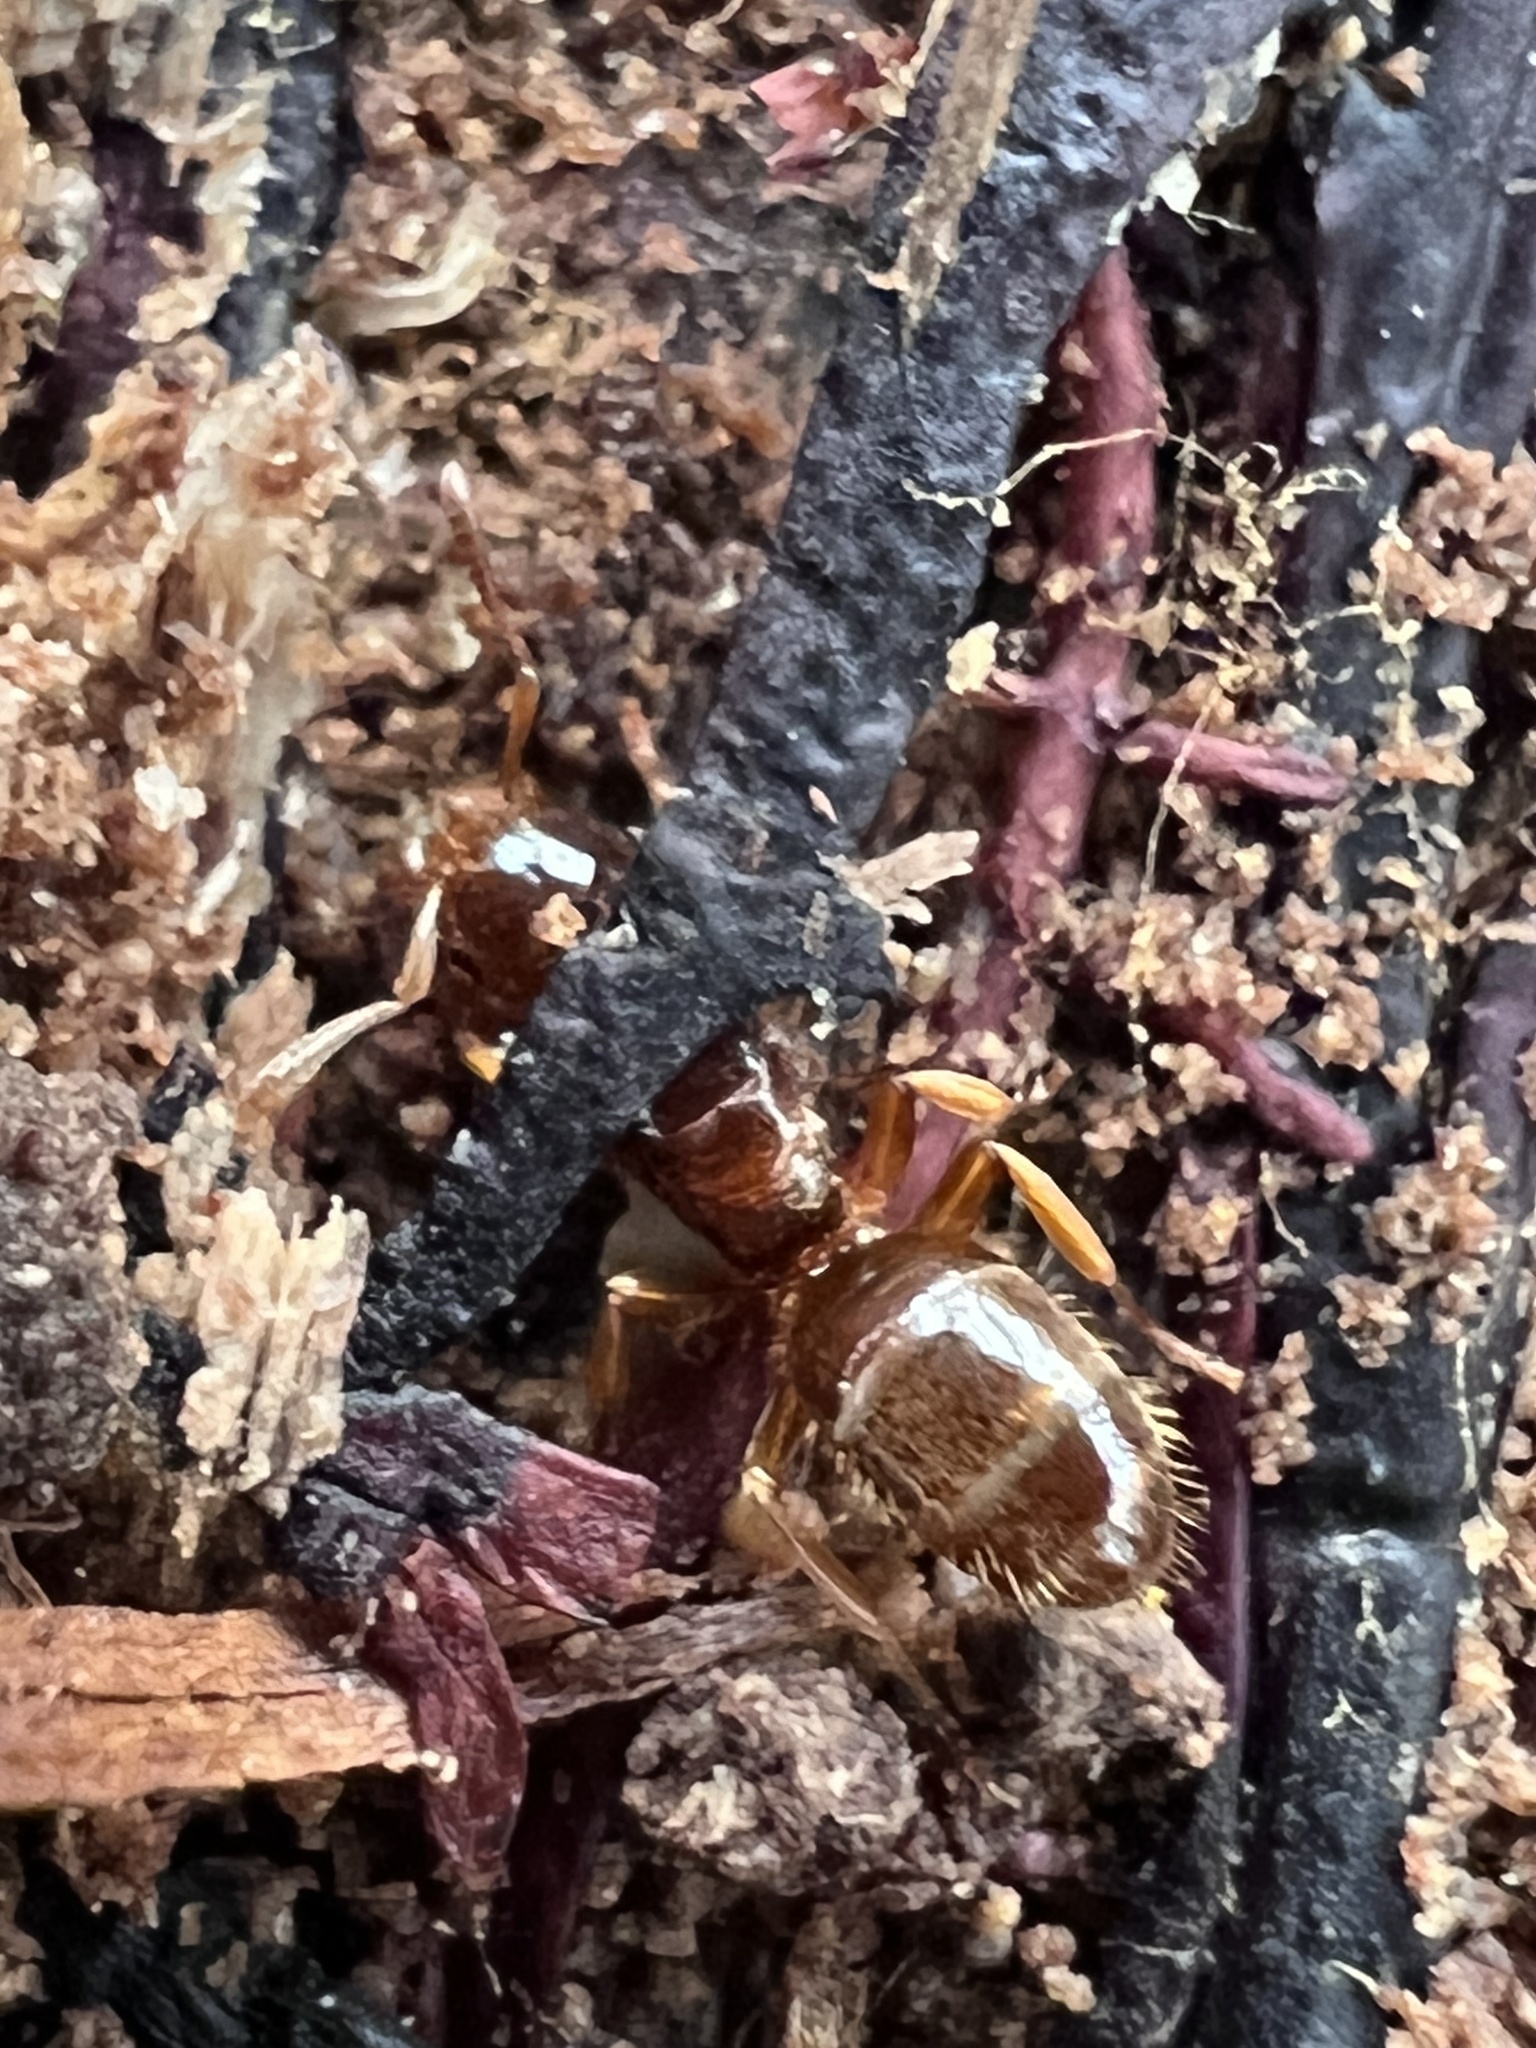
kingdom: Animalia
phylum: Arthropoda
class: Insecta
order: Hymenoptera
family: Formicidae
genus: Lasius
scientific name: Lasius claviger
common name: Common citronella ant
